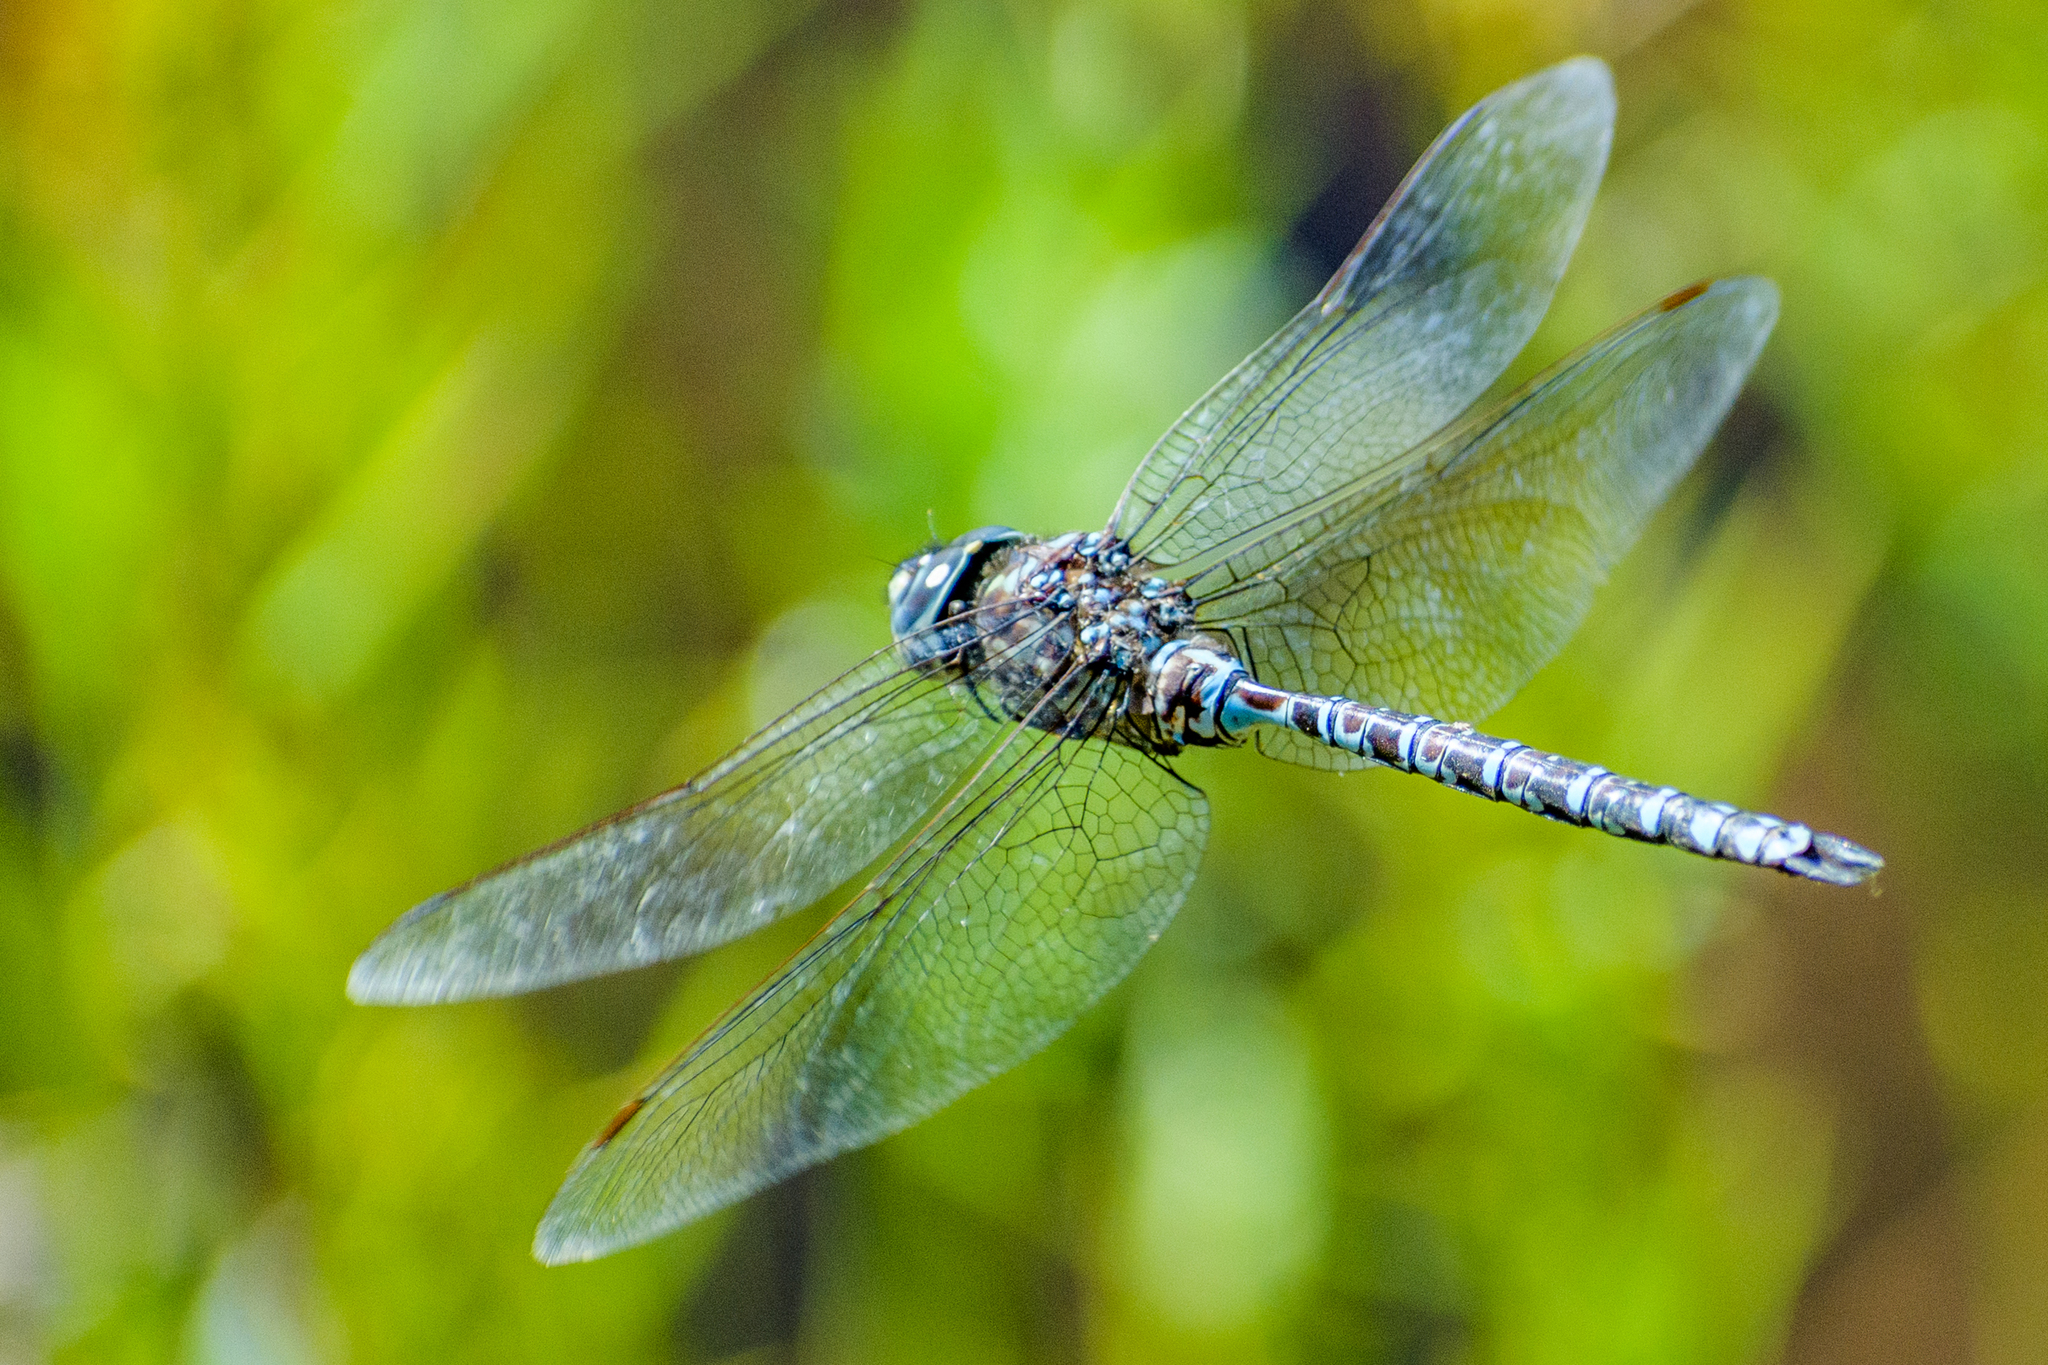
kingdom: Animalia
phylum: Arthropoda
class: Insecta
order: Odonata
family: Aeshnidae
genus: Aeshna
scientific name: Aeshna clepsydra
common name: Mottled darner
